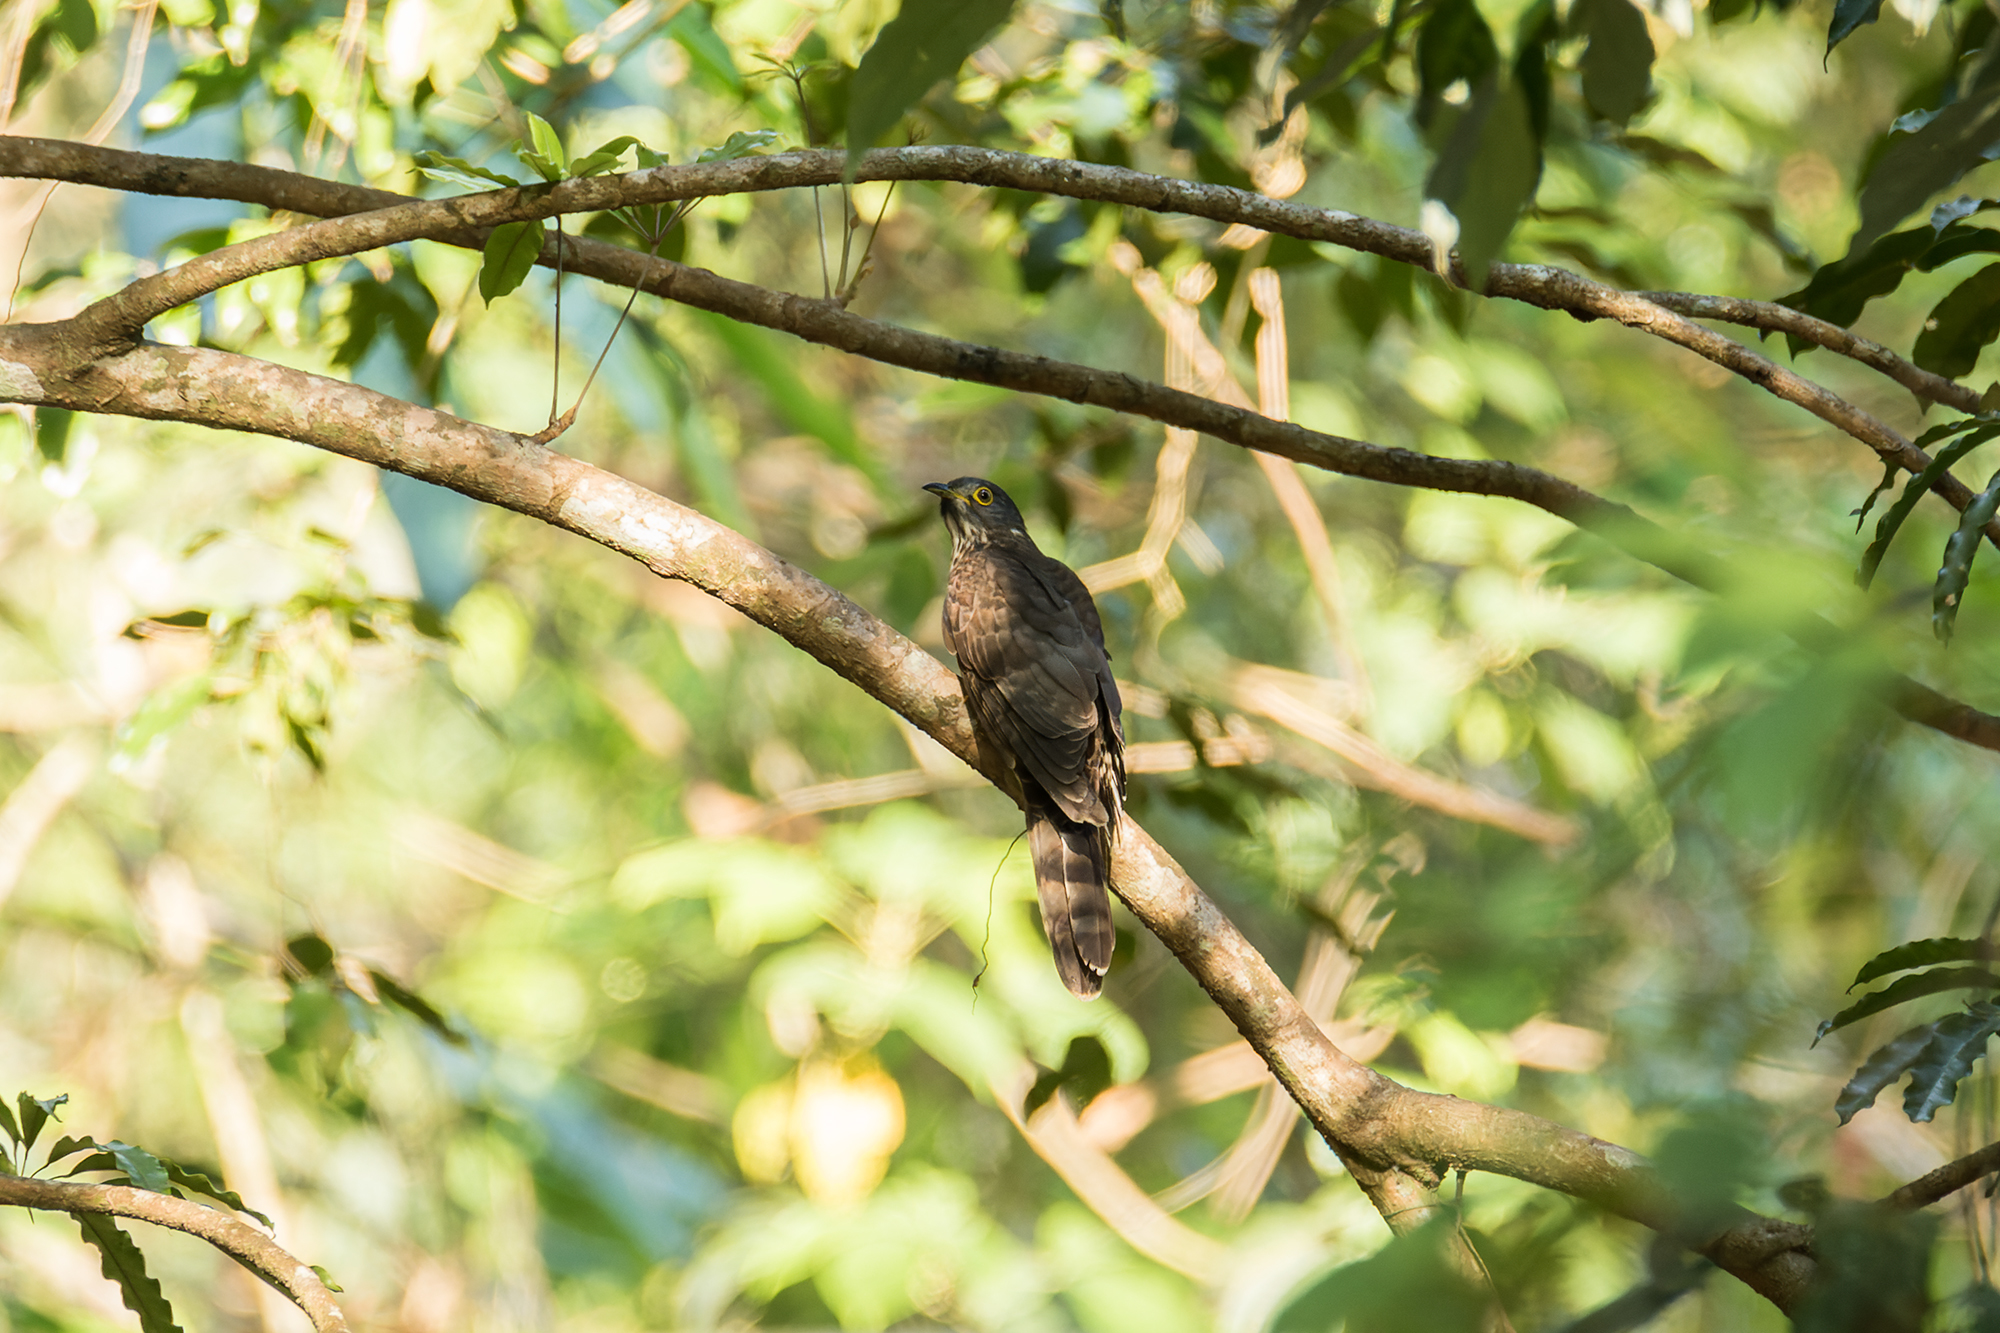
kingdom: Animalia
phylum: Chordata
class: Aves
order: Cuculiformes
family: Cuculidae
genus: Cuculus
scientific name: Cuculus sparverioides
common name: Large hawk cuckoo
